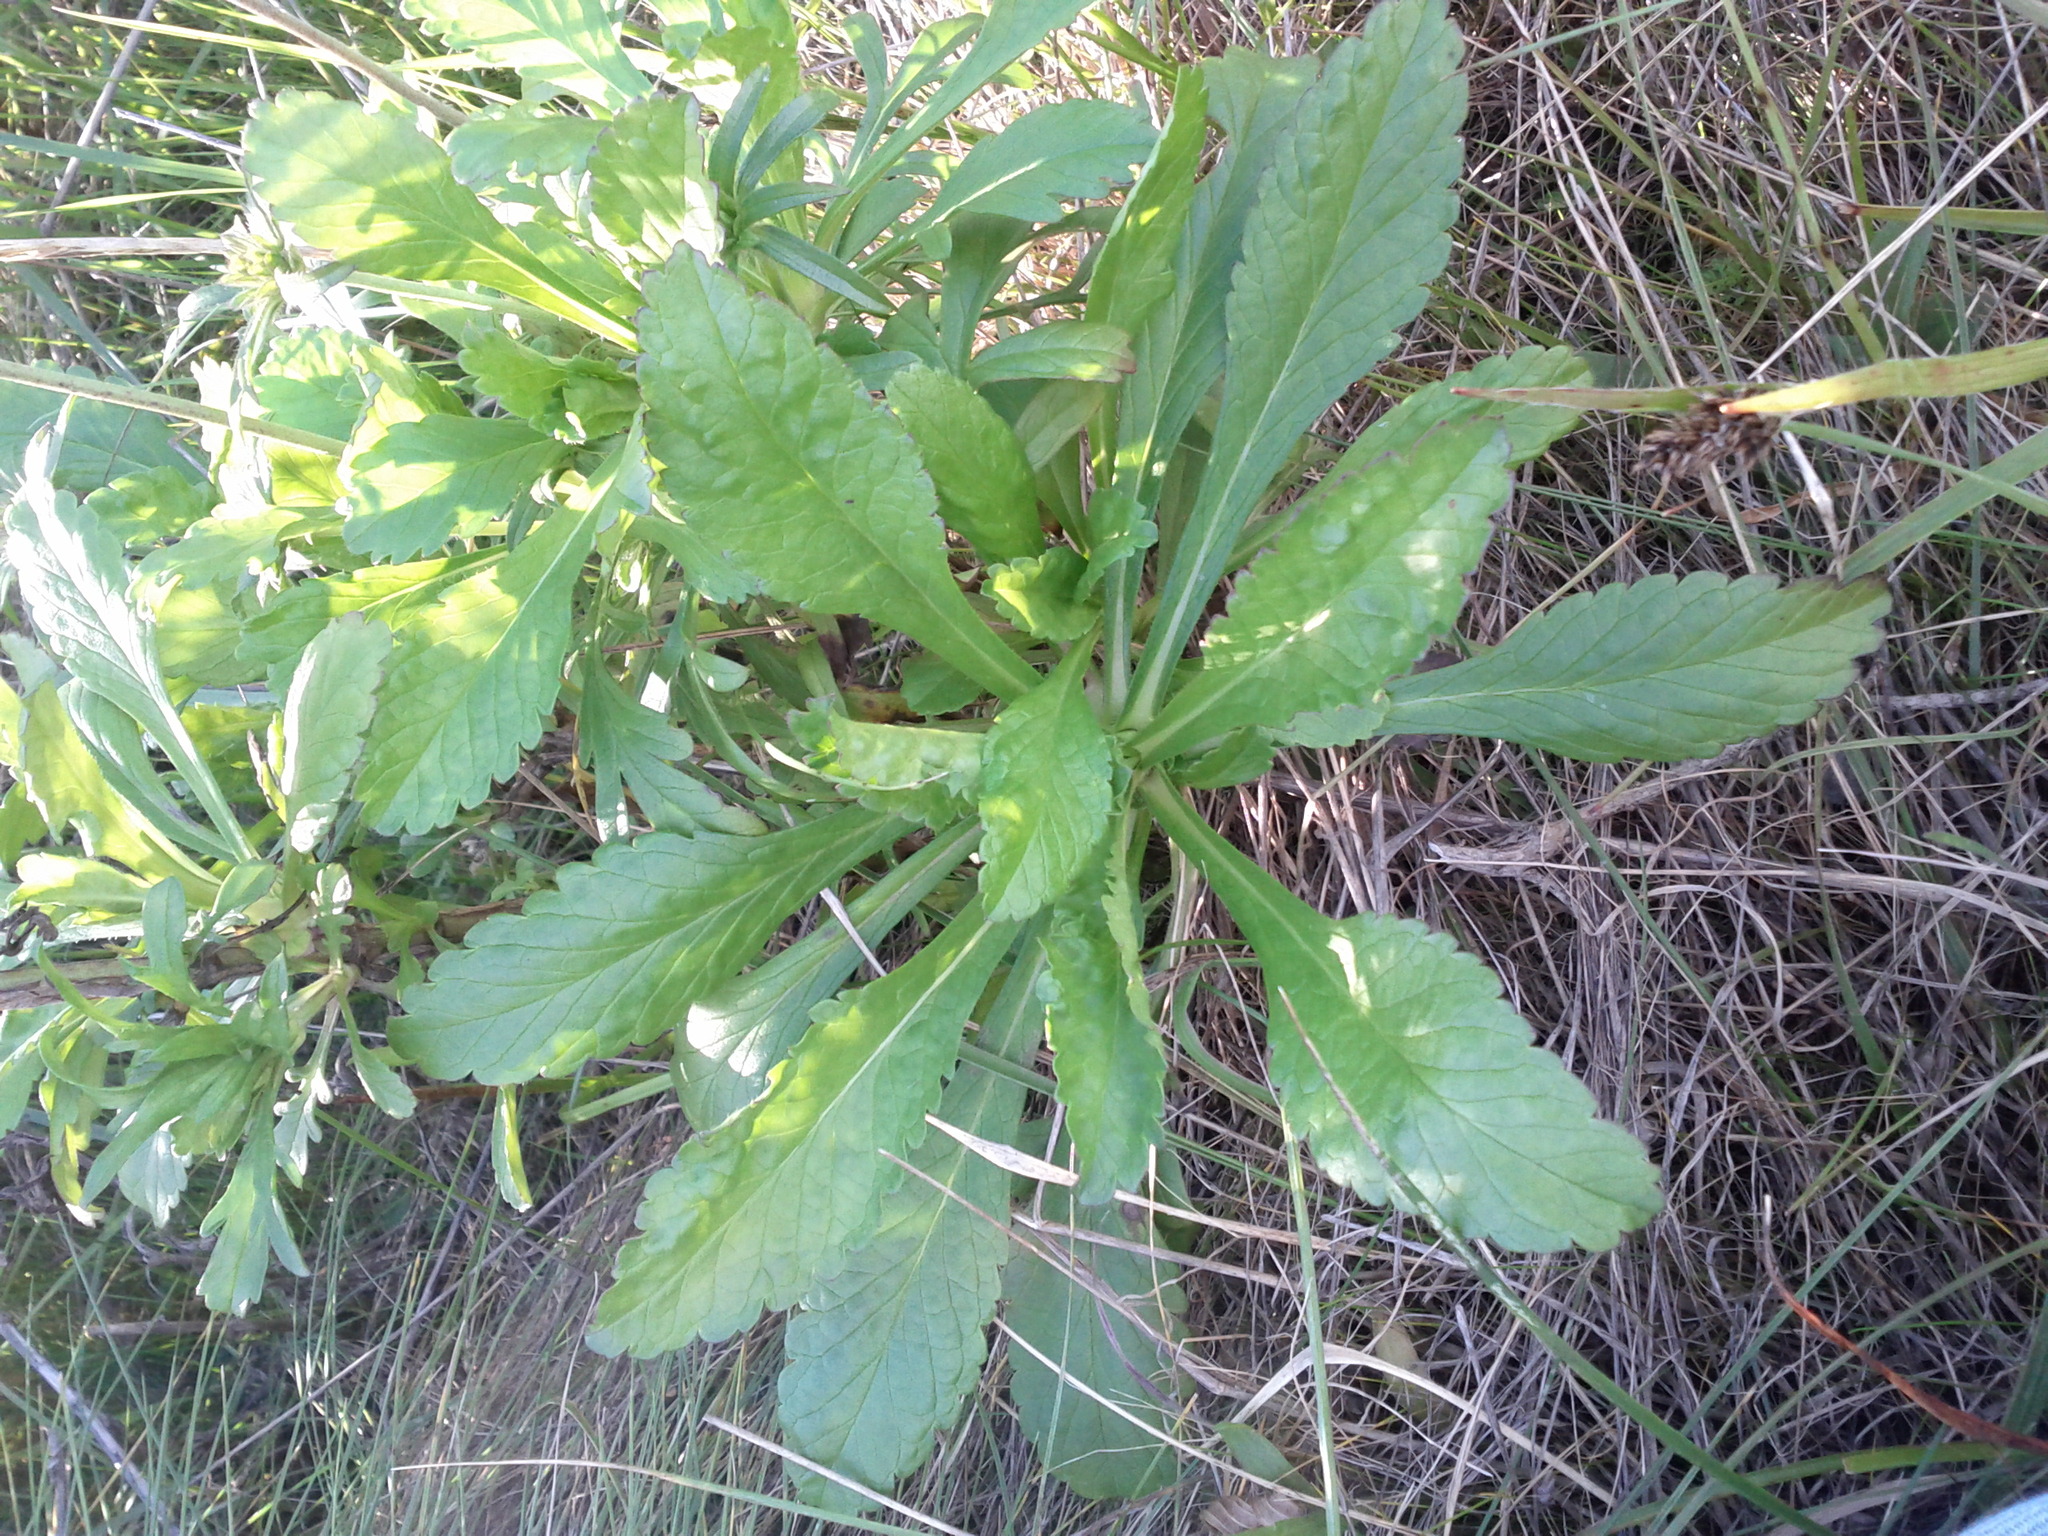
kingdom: Plantae
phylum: Tracheophyta
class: Magnoliopsida
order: Dipsacales
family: Caprifoliaceae
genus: Sixalix
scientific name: Sixalix atropurpurea
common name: Sweet scabious
